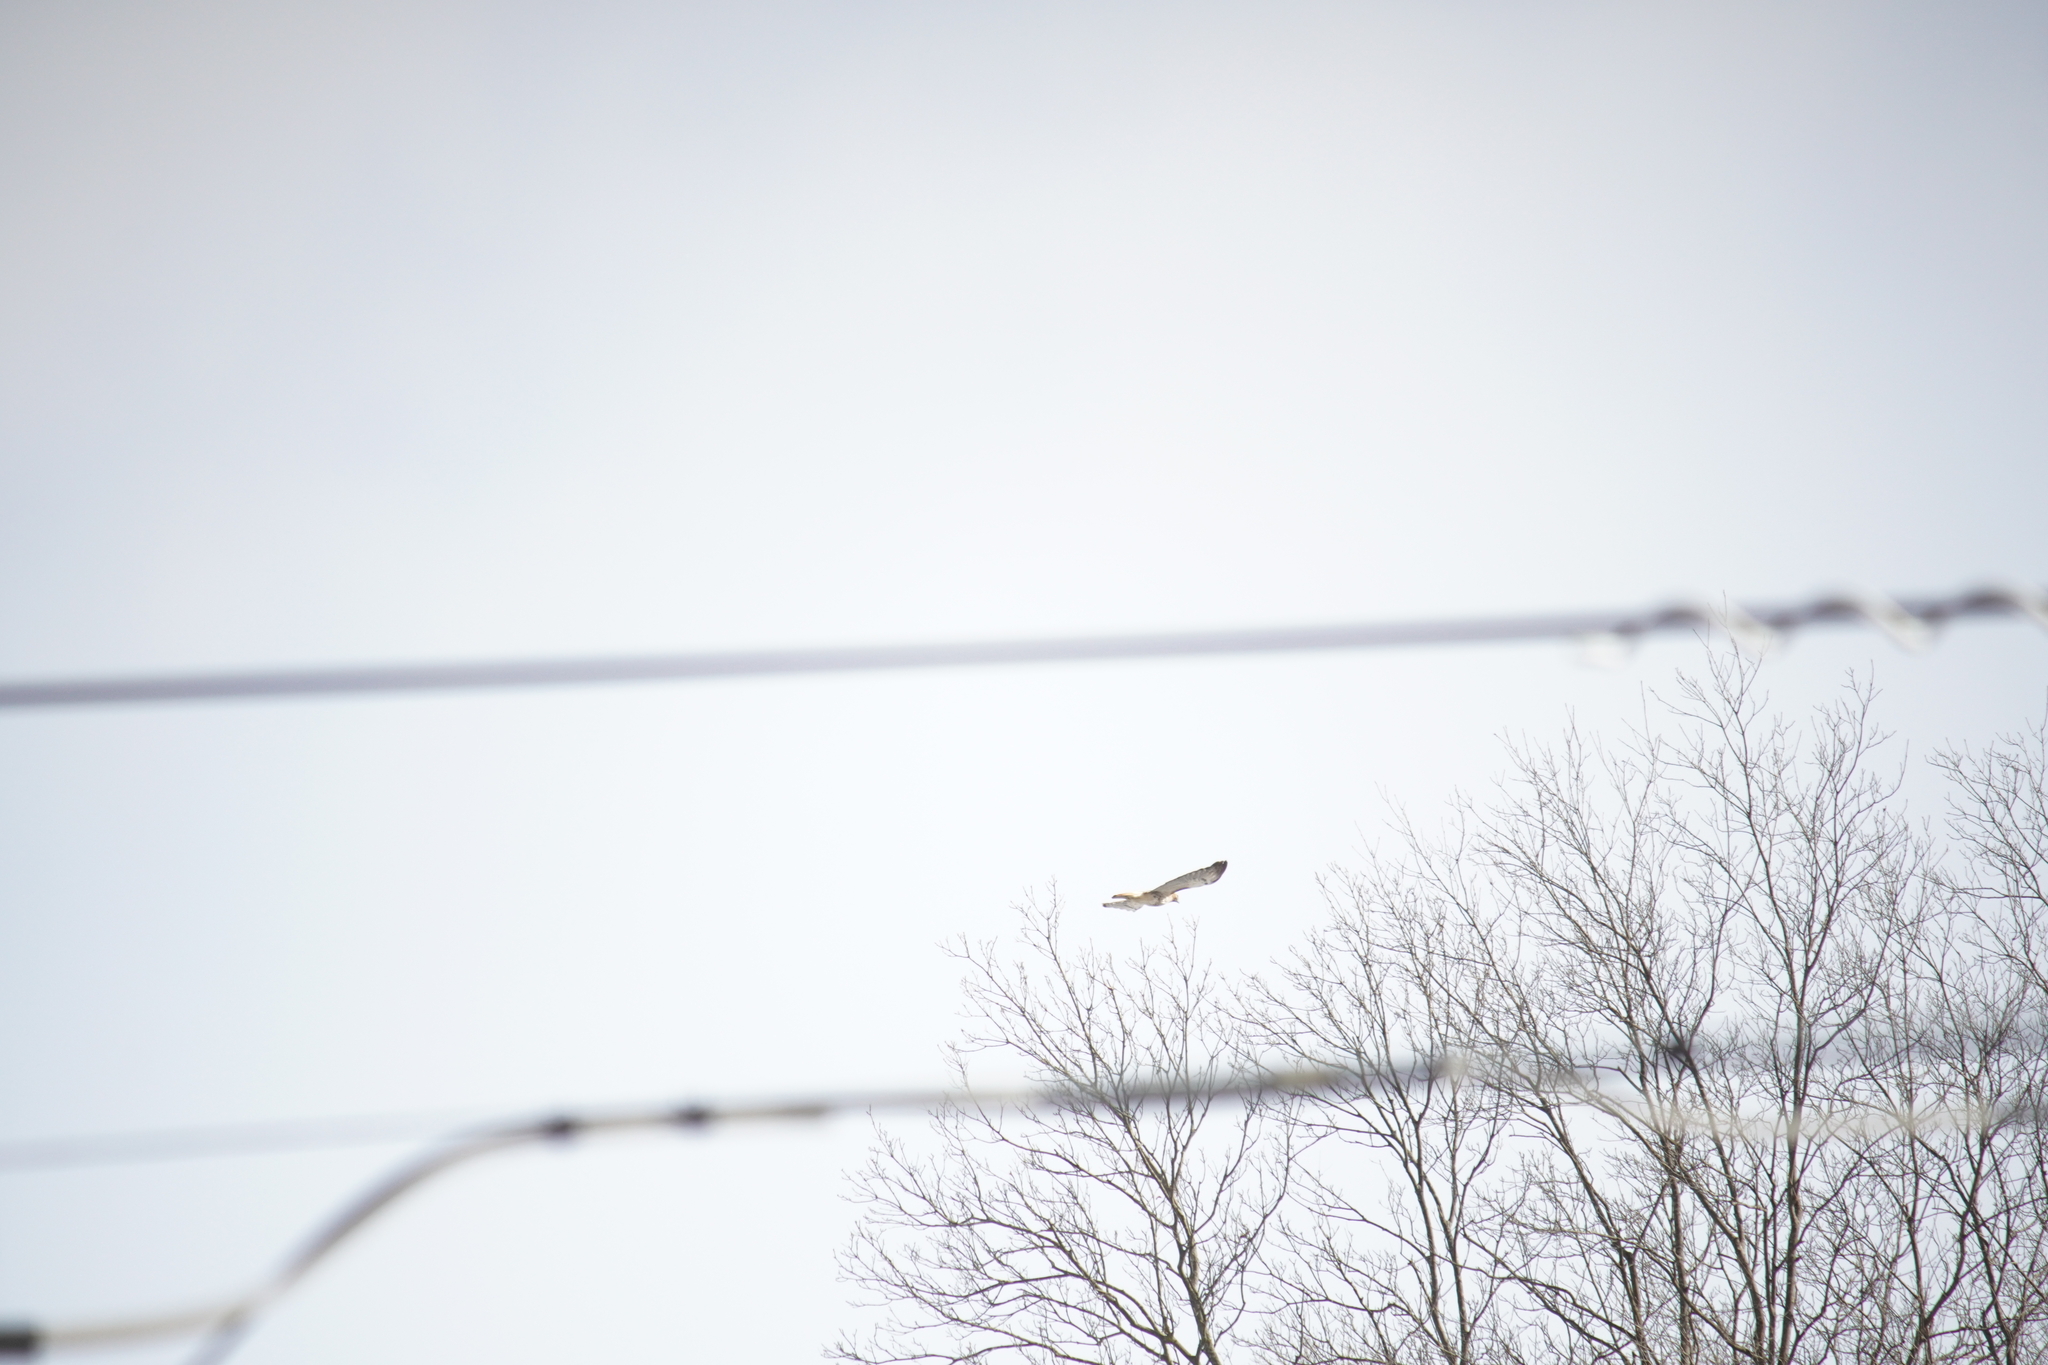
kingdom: Animalia
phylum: Chordata
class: Aves
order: Accipitriformes
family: Accipitridae
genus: Buteo
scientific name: Buteo jamaicensis
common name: Red-tailed hawk
